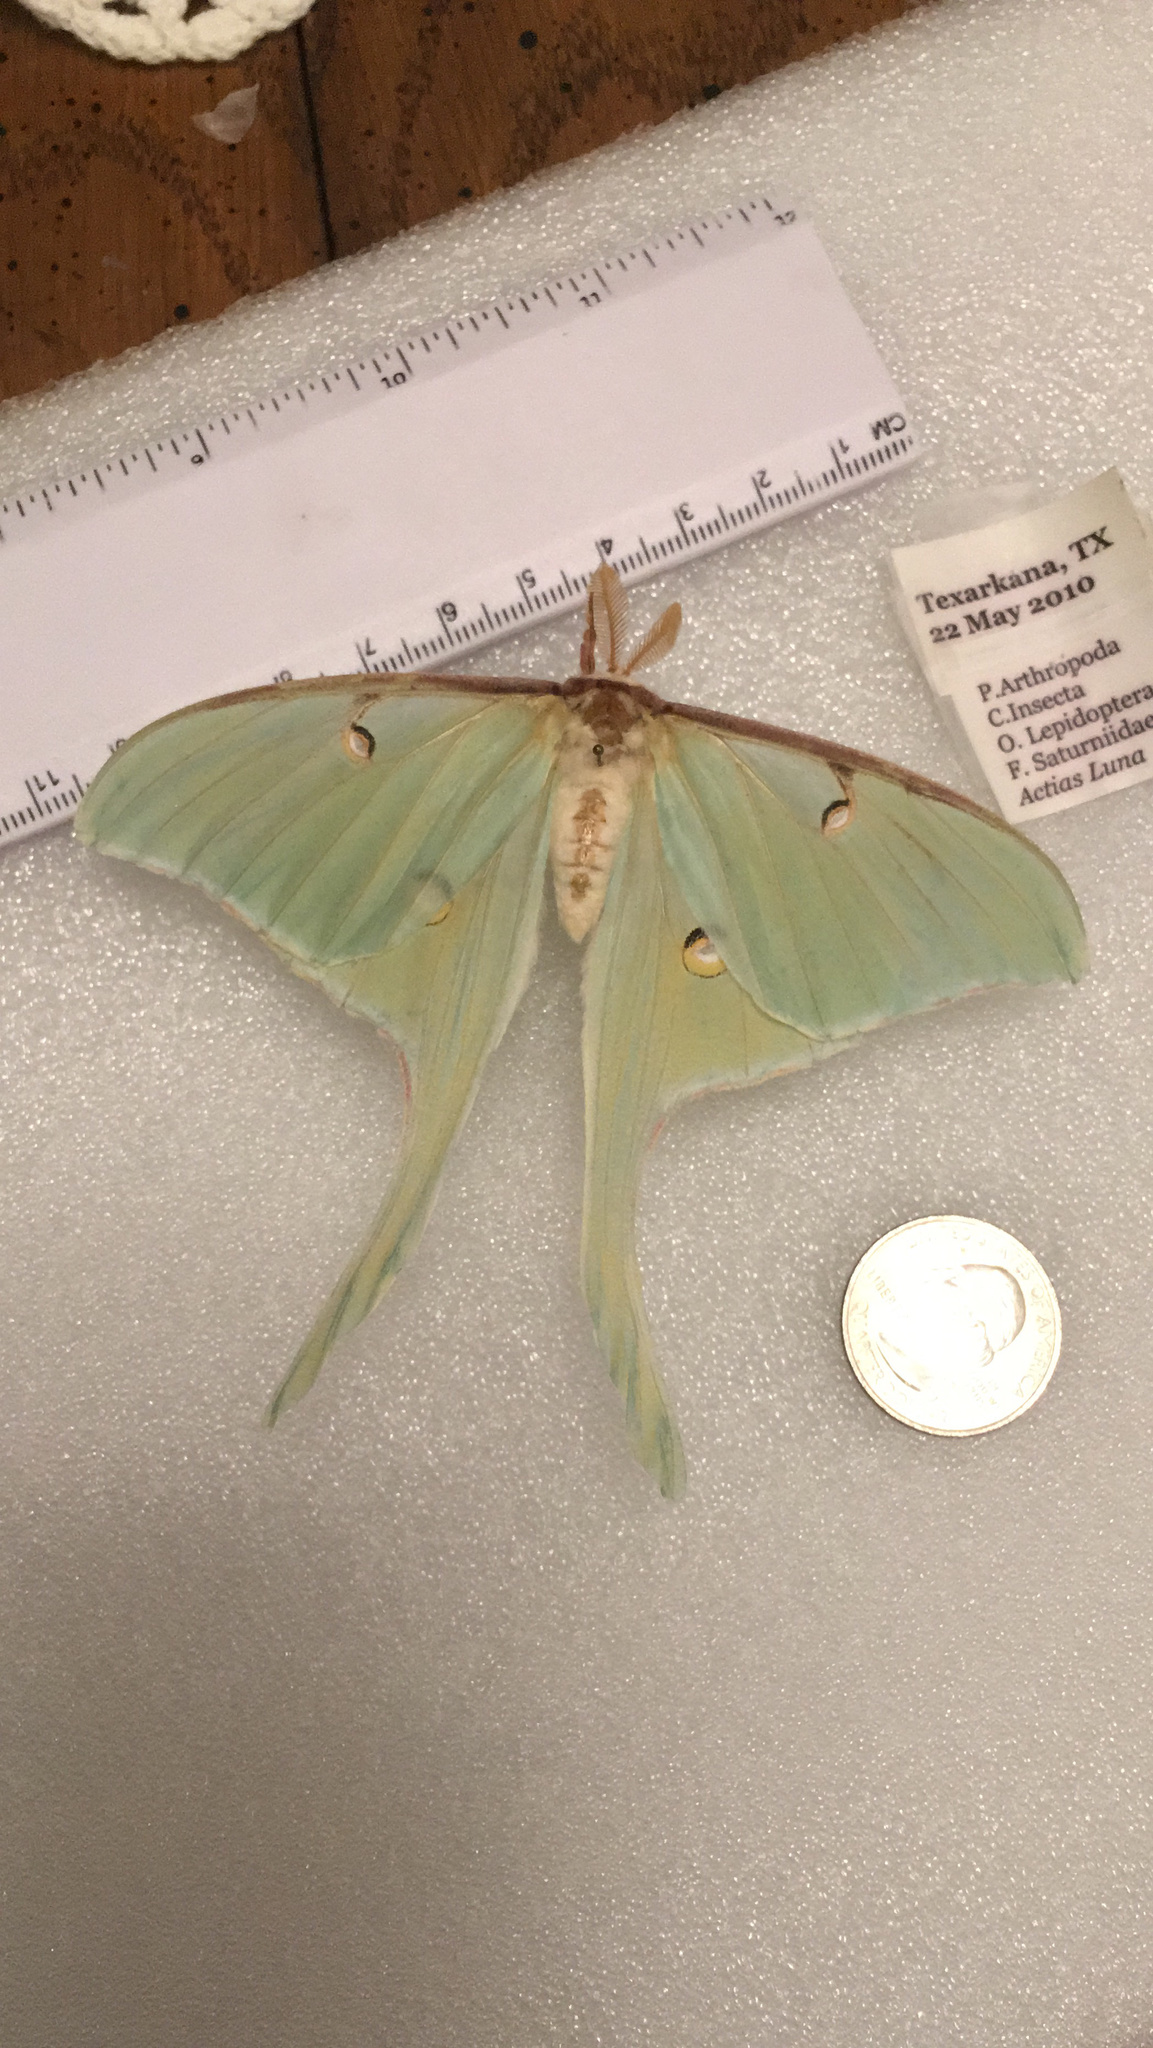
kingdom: Animalia
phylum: Arthropoda
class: Insecta
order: Lepidoptera
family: Saturniidae
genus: Actias
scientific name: Actias luna
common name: Luna moth
